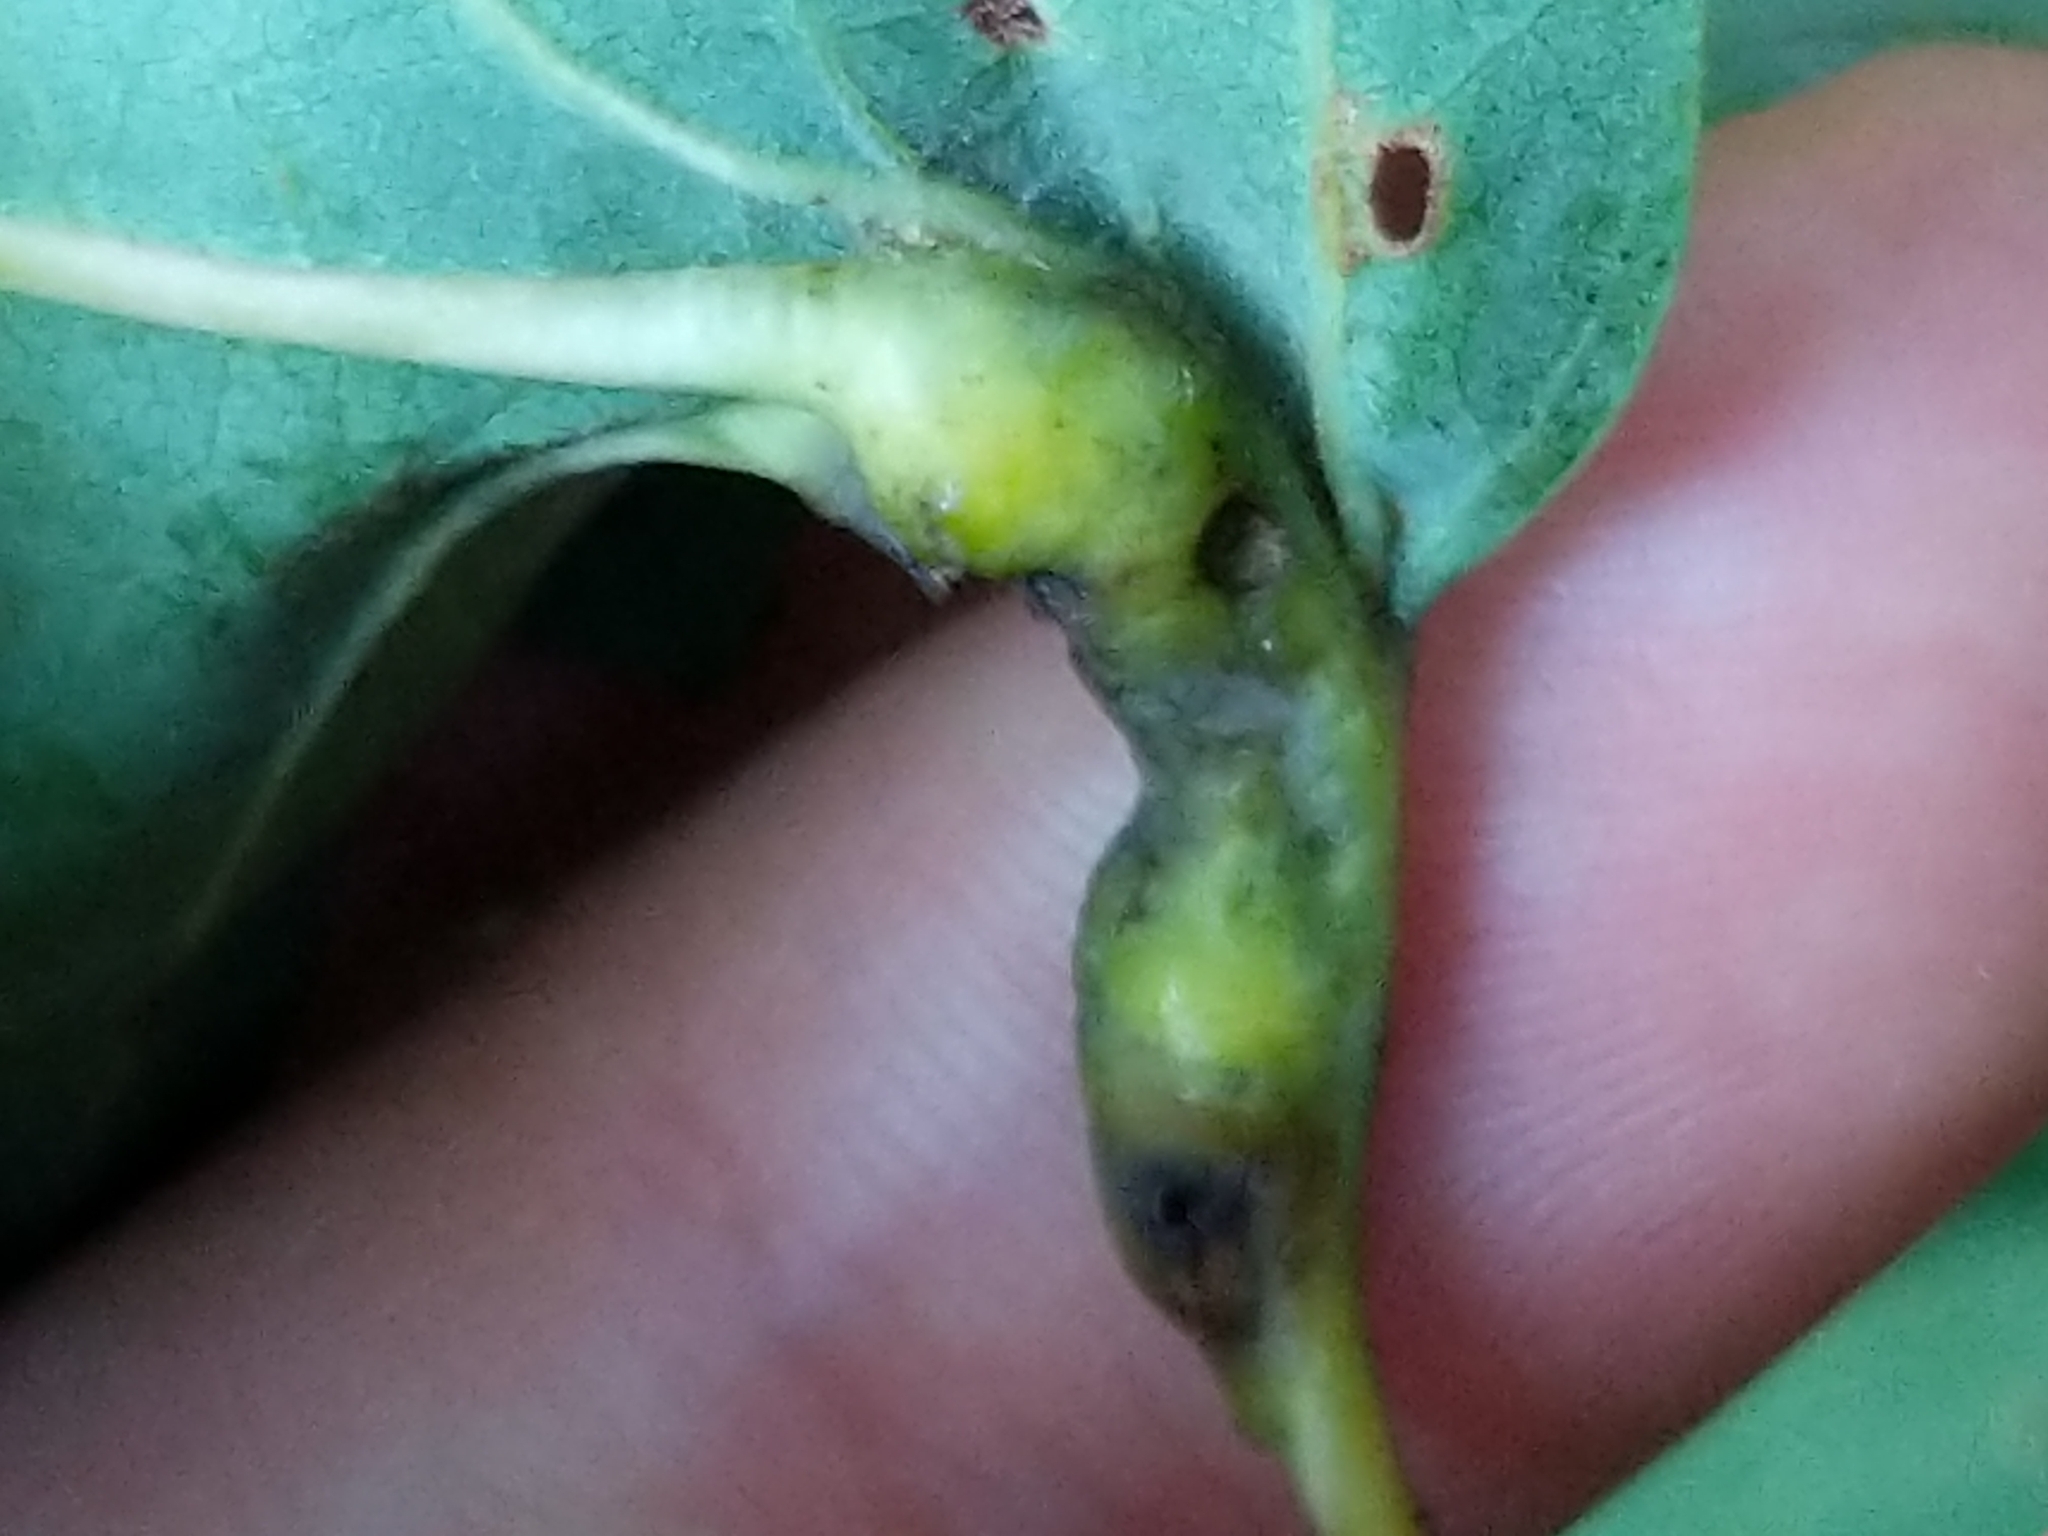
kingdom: Animalia
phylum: Arthropoda
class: Insecta
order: Hymenoptera
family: Cynipidae
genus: Melikaiella
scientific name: Melikaiella tumifica
